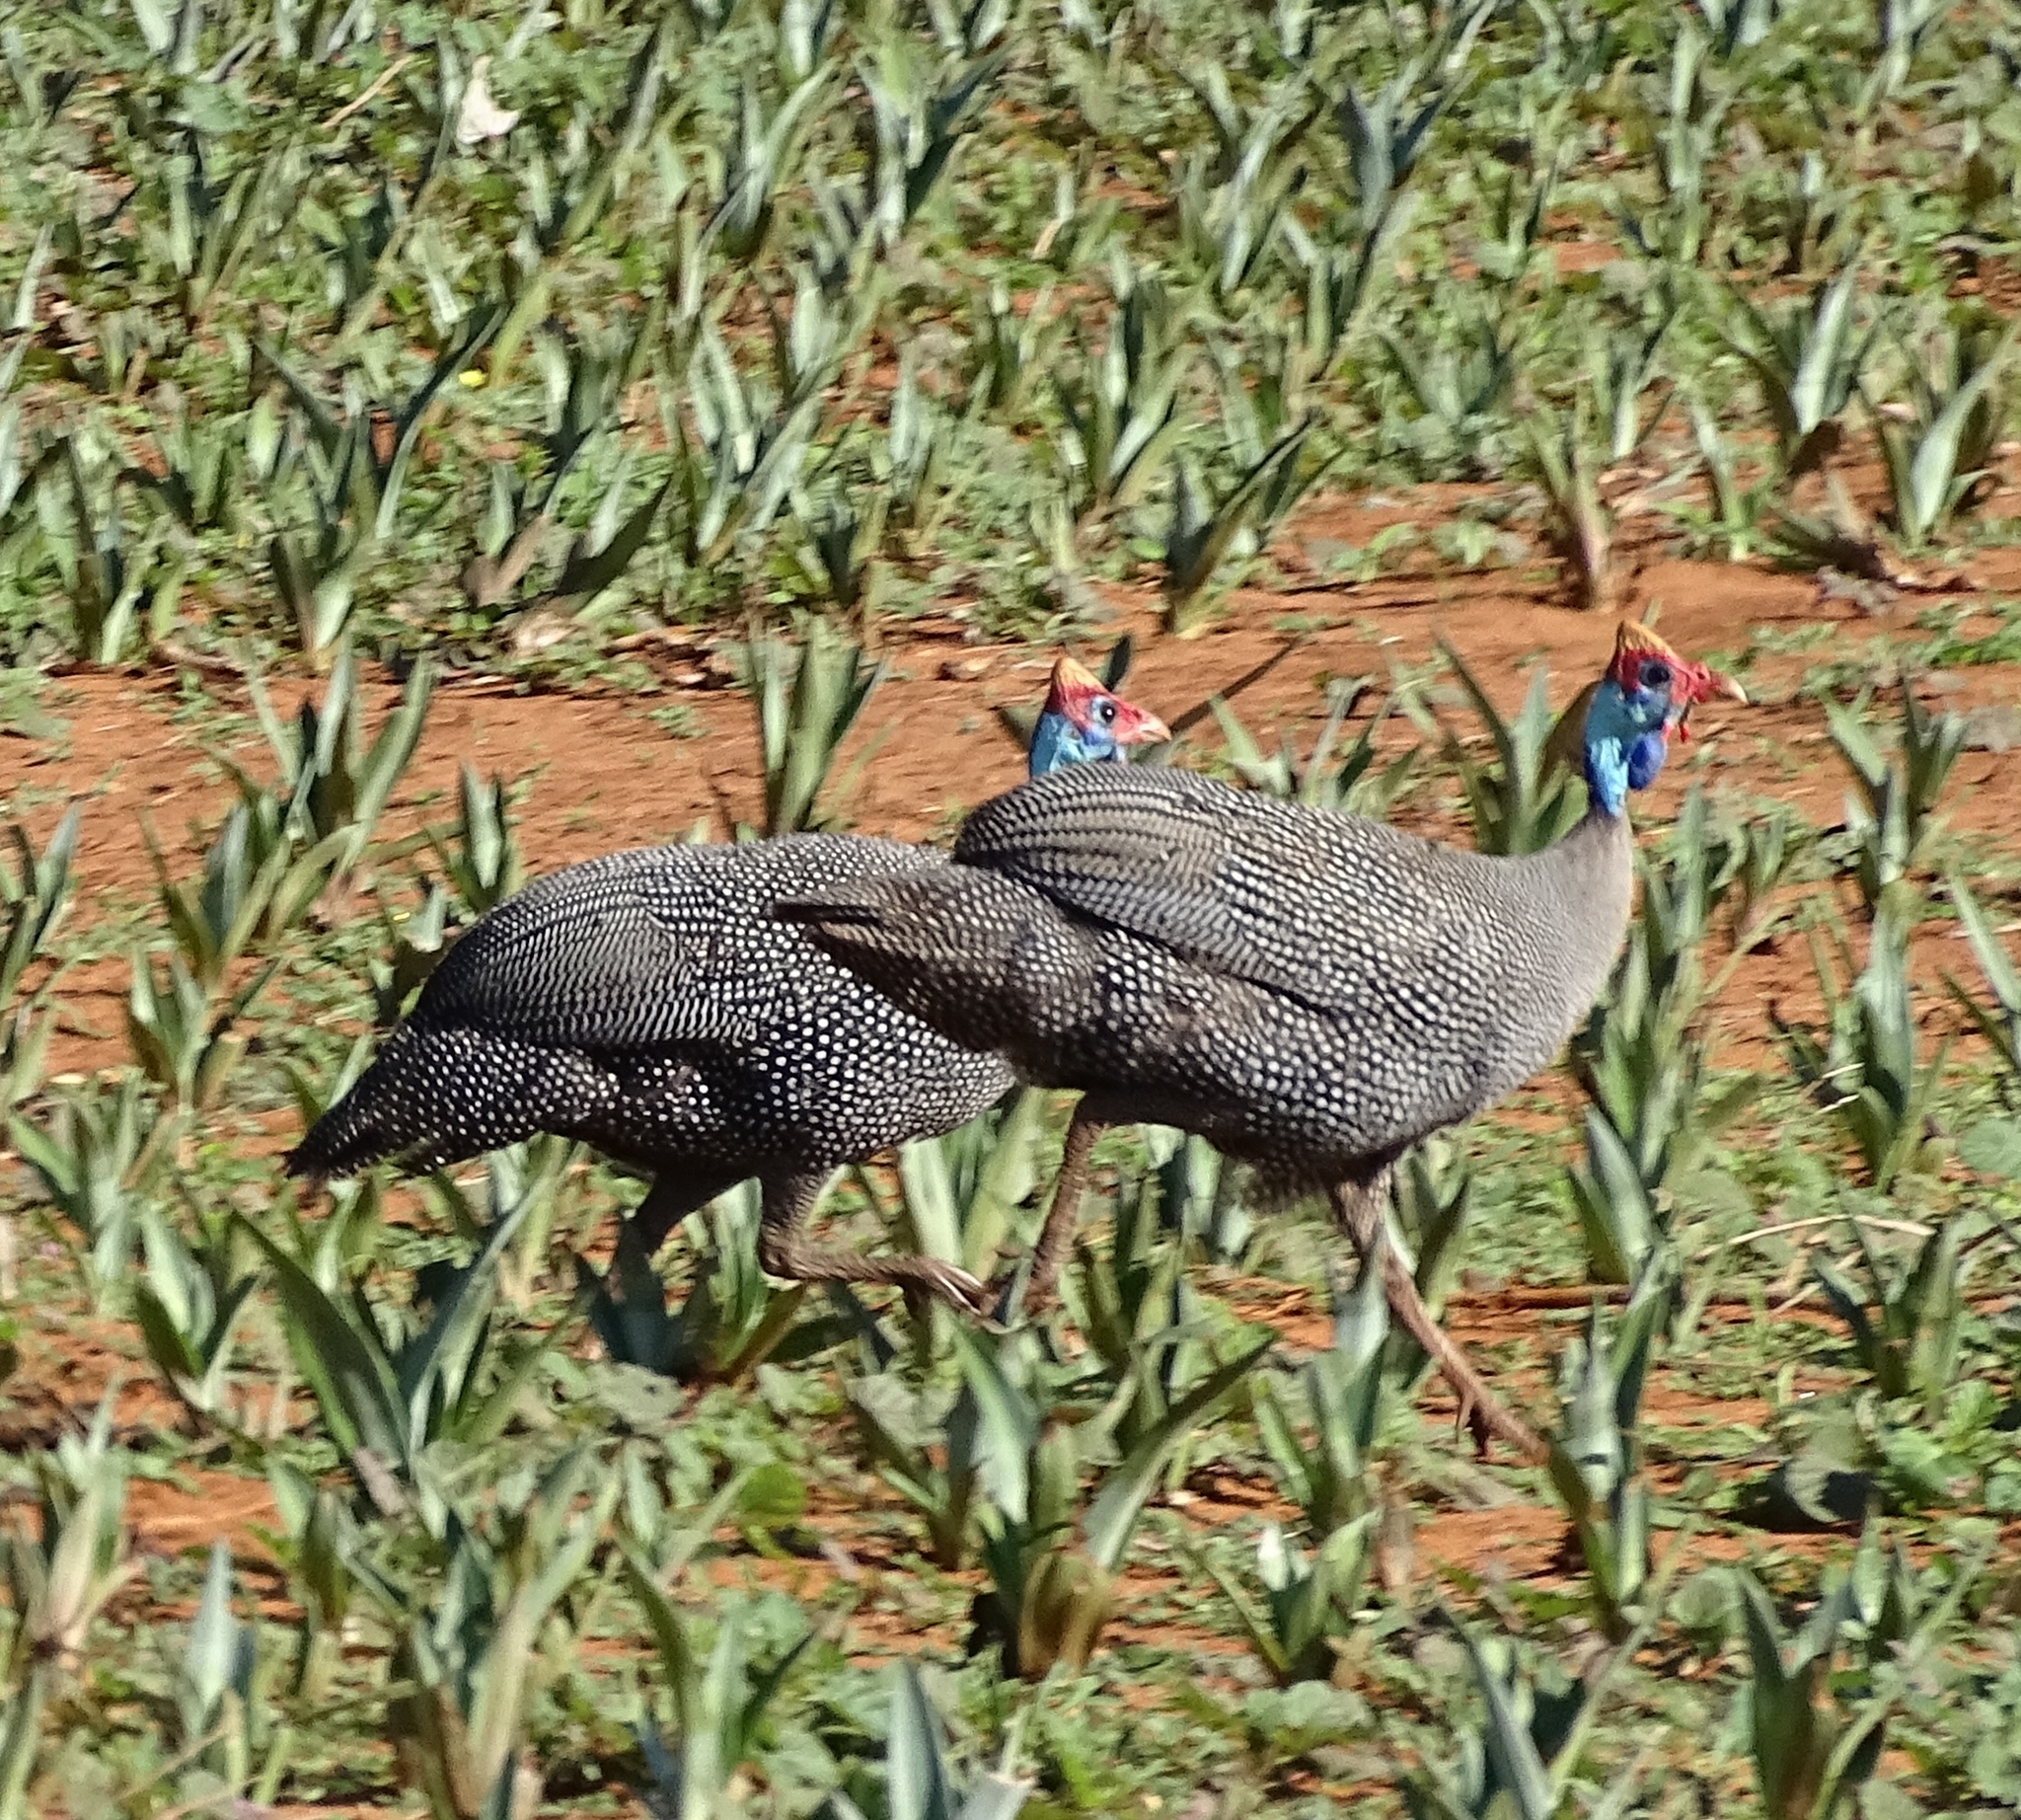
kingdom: Animalia
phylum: Chordata
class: Aves
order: Galliformes
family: Numididae
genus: Numida
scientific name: Numida meleagris
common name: Helmeted guineafowl
